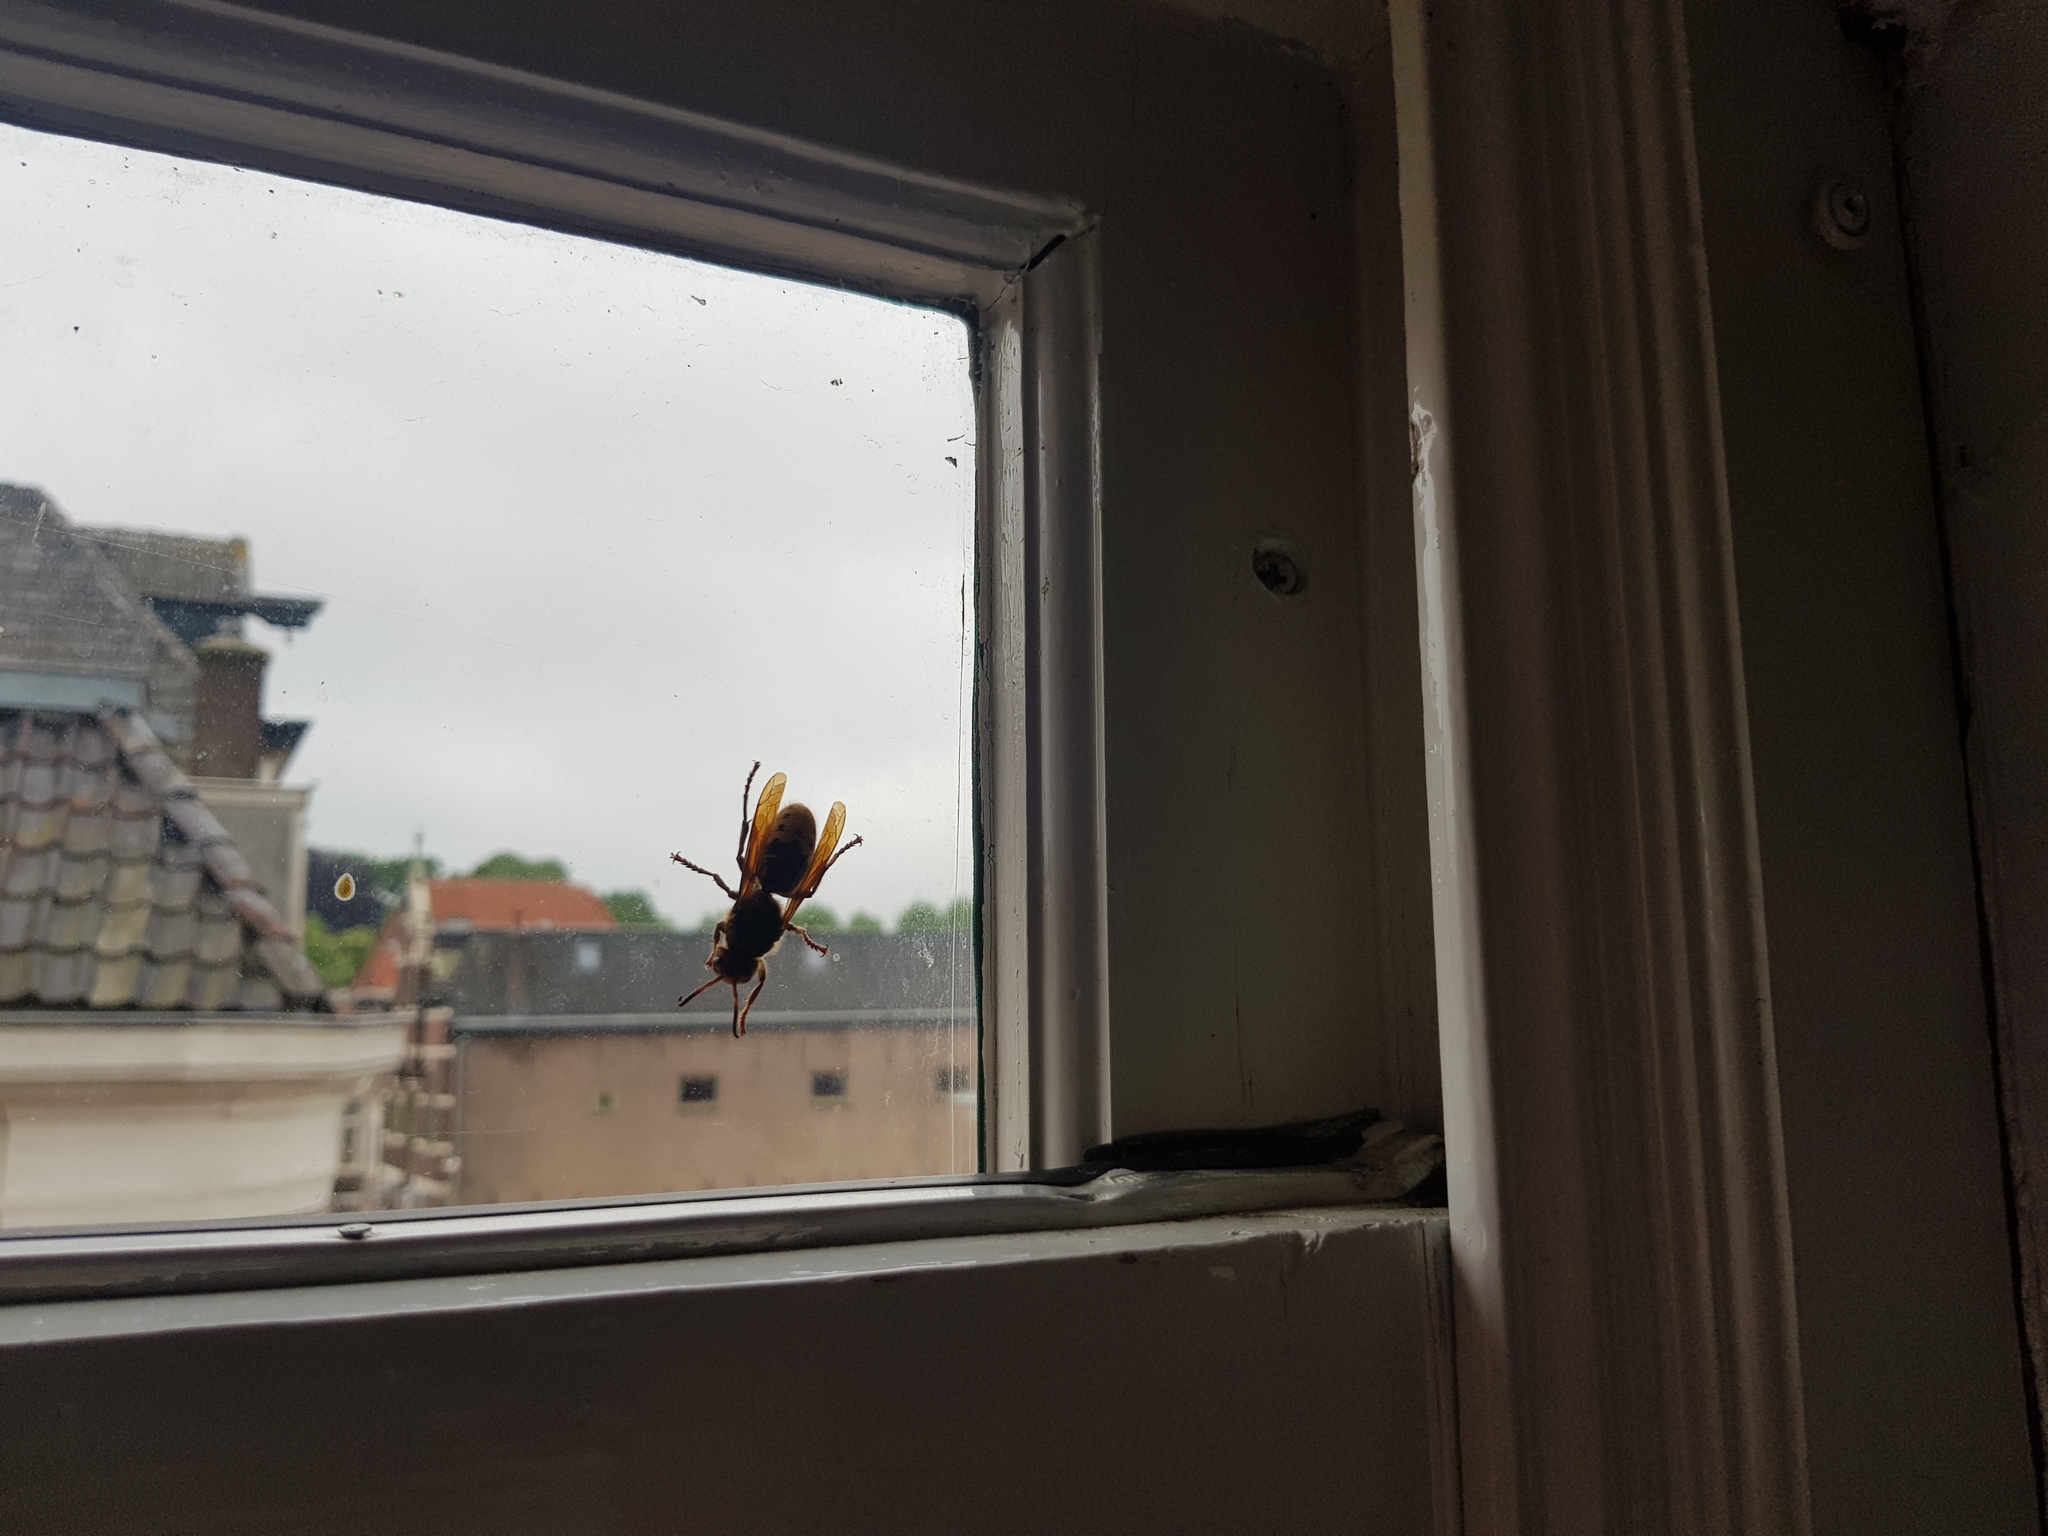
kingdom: Animalia
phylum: Arthropoda
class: Insecta
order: Hymenoptera
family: Vespidae
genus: Vespa
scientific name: Vespa crabro
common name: Hornet
